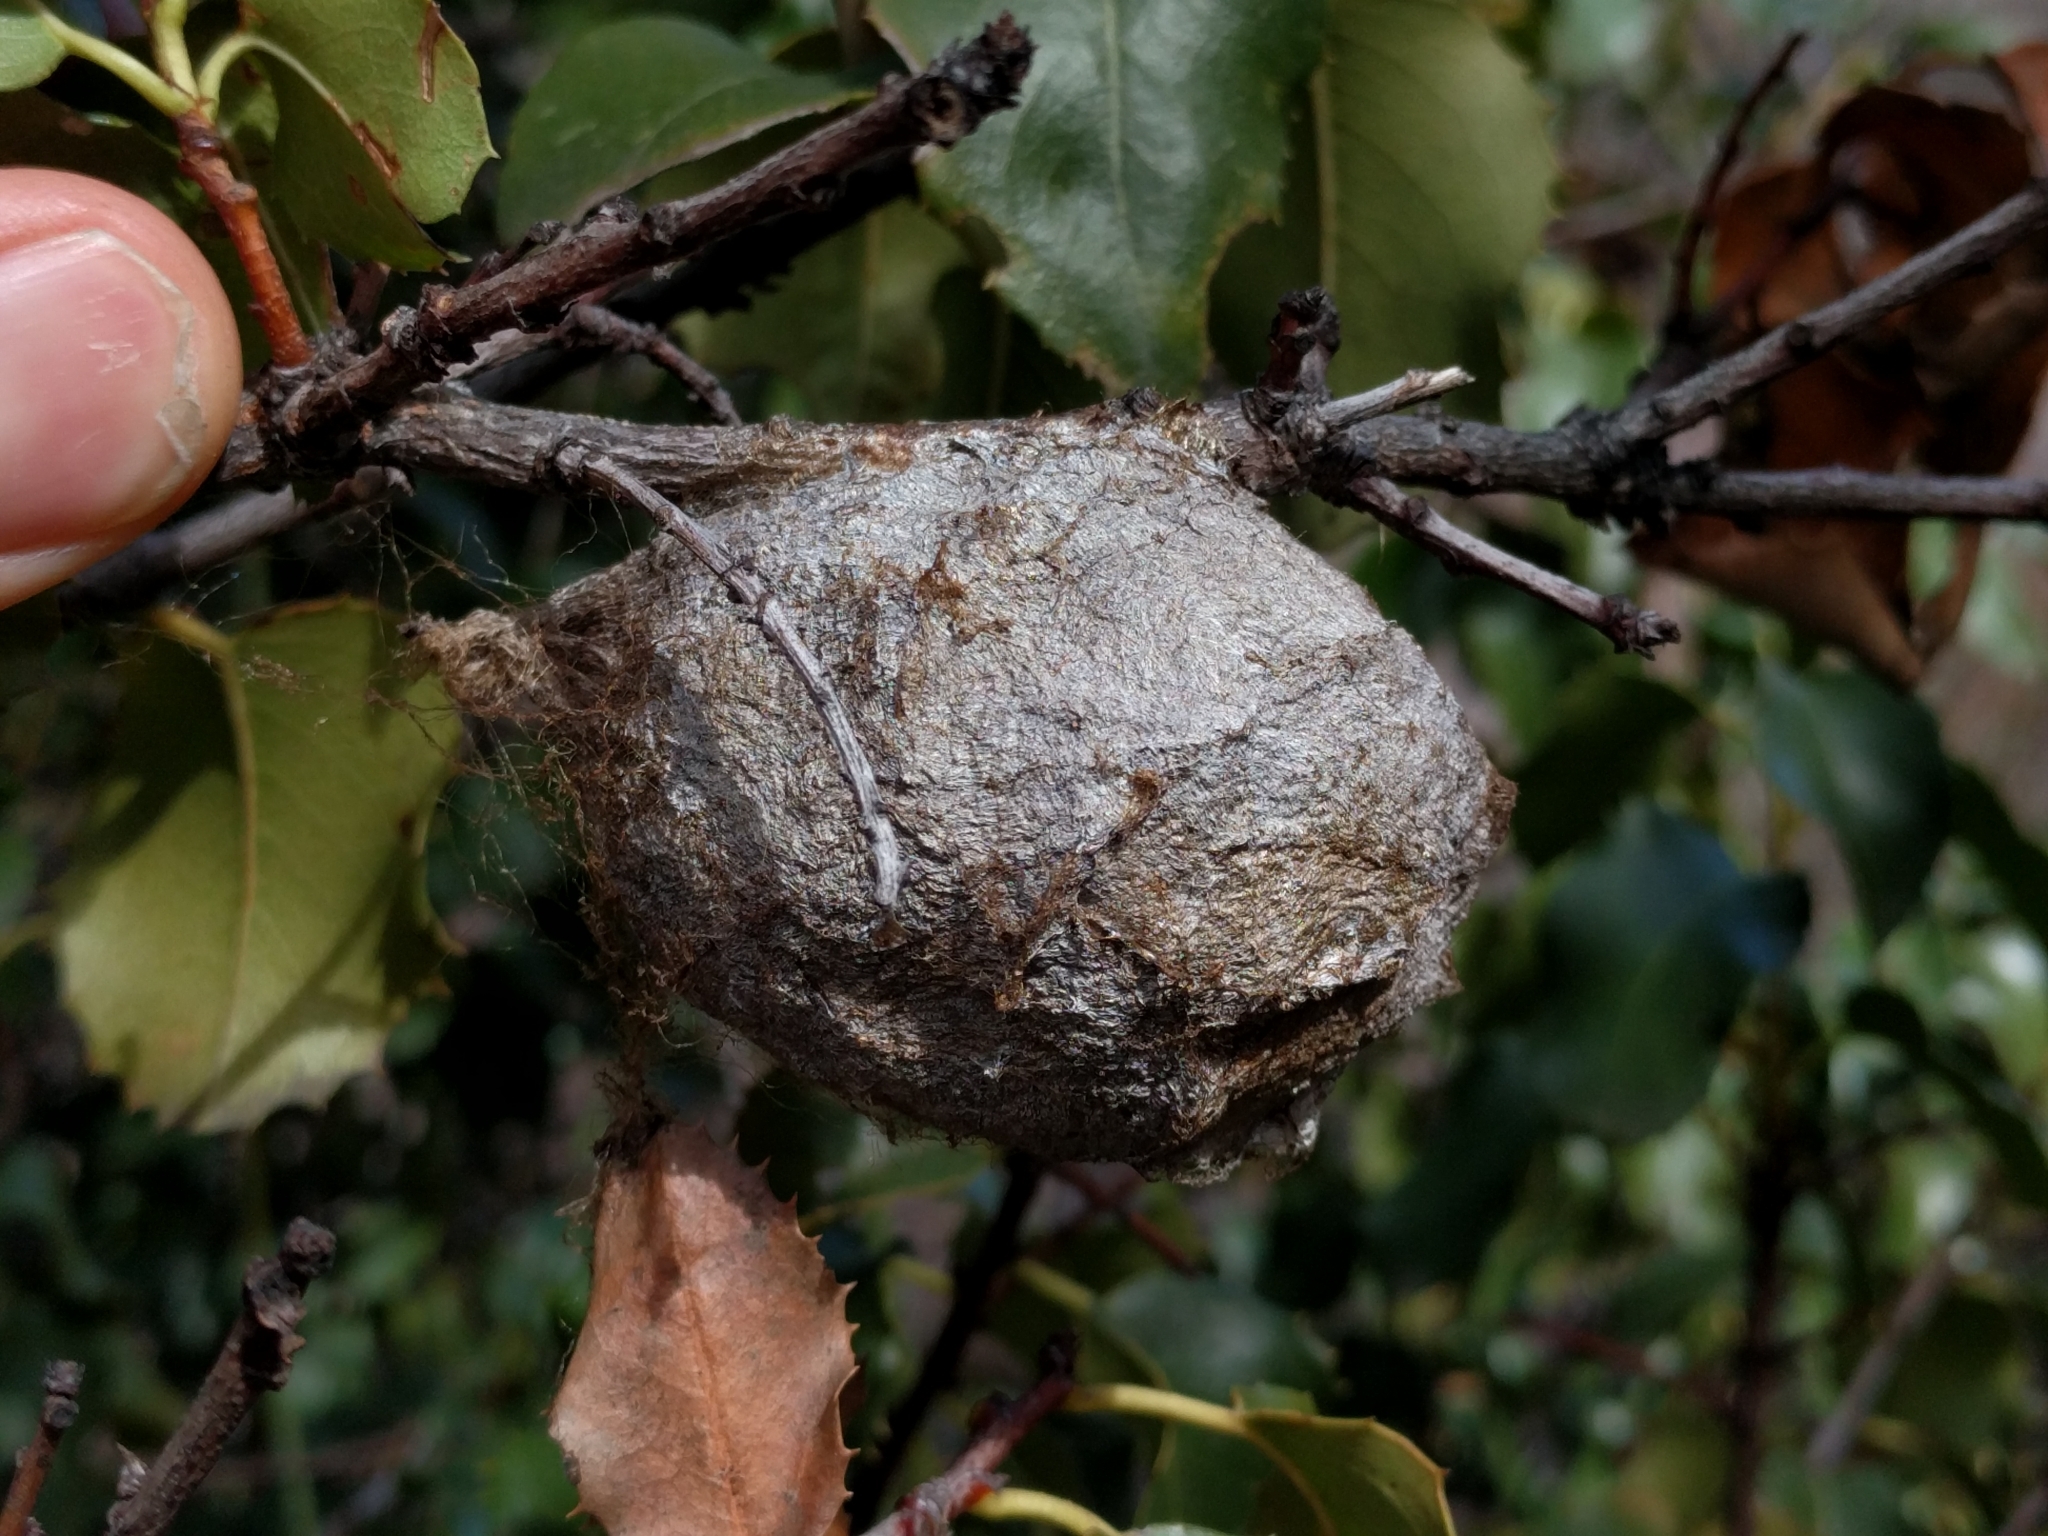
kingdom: Animalia
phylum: Arthropoda
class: Insecta
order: Lepidoptera
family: Saturniidae
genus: Hyalophora
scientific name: Hyalophora euryalus
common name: Ceanothus silkmoth
